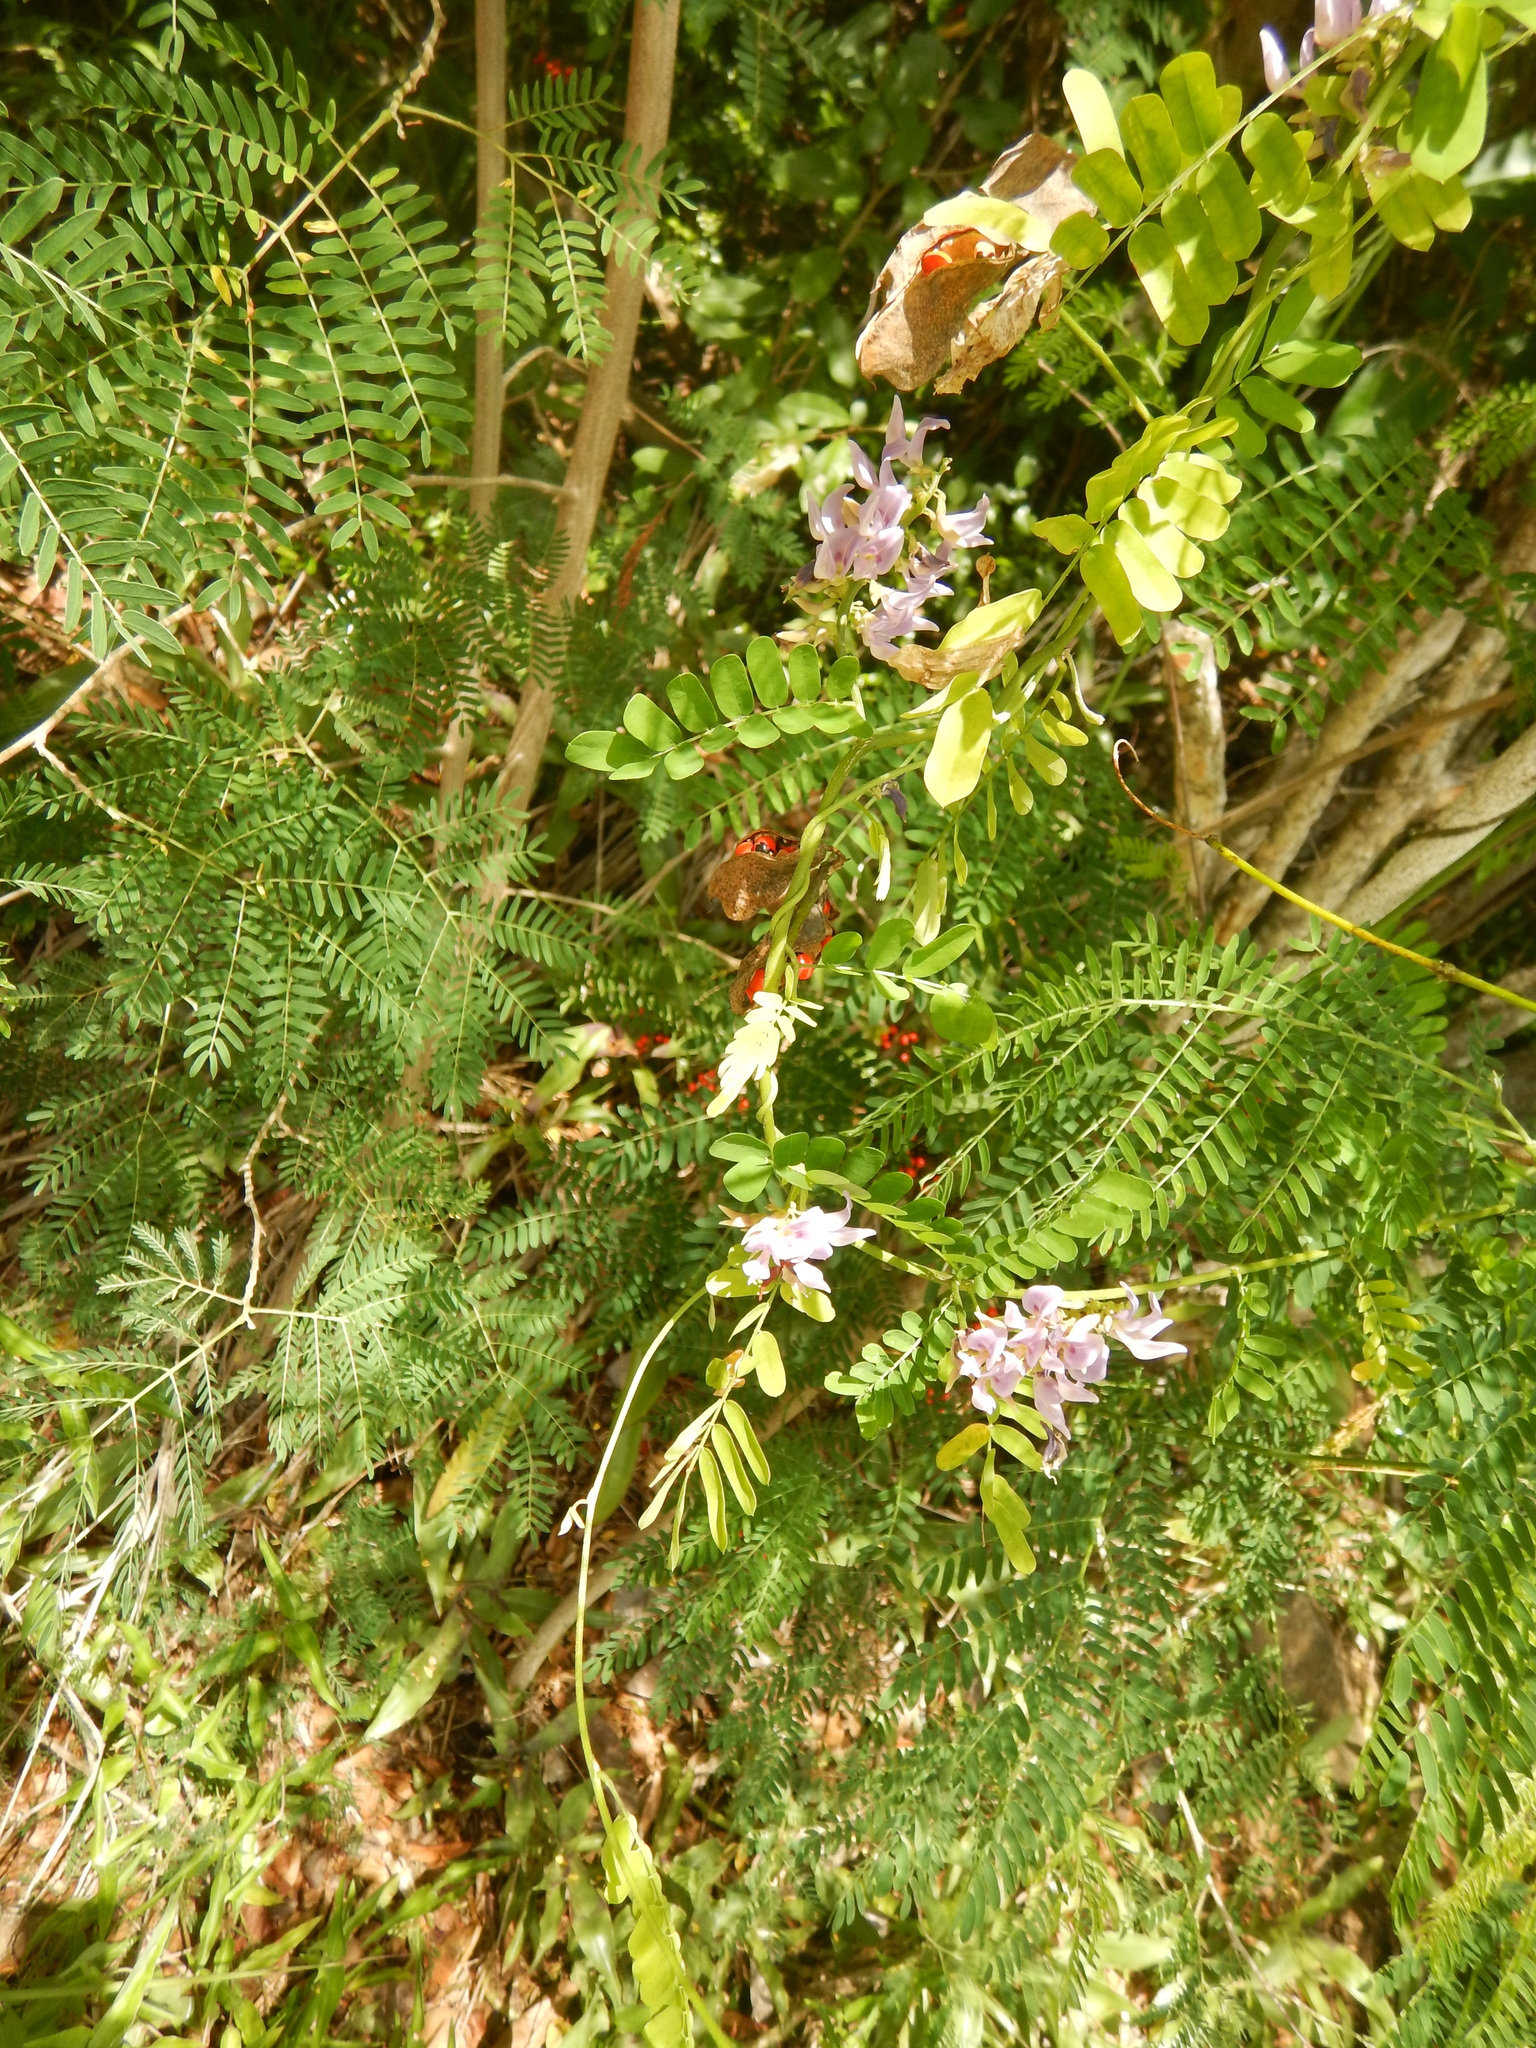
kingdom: Plantae
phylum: Tracheophyta
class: Magnoliopsida
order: Fabales
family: Fabaceae
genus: Abrus
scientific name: Abrus precatorius
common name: Rosarypea
